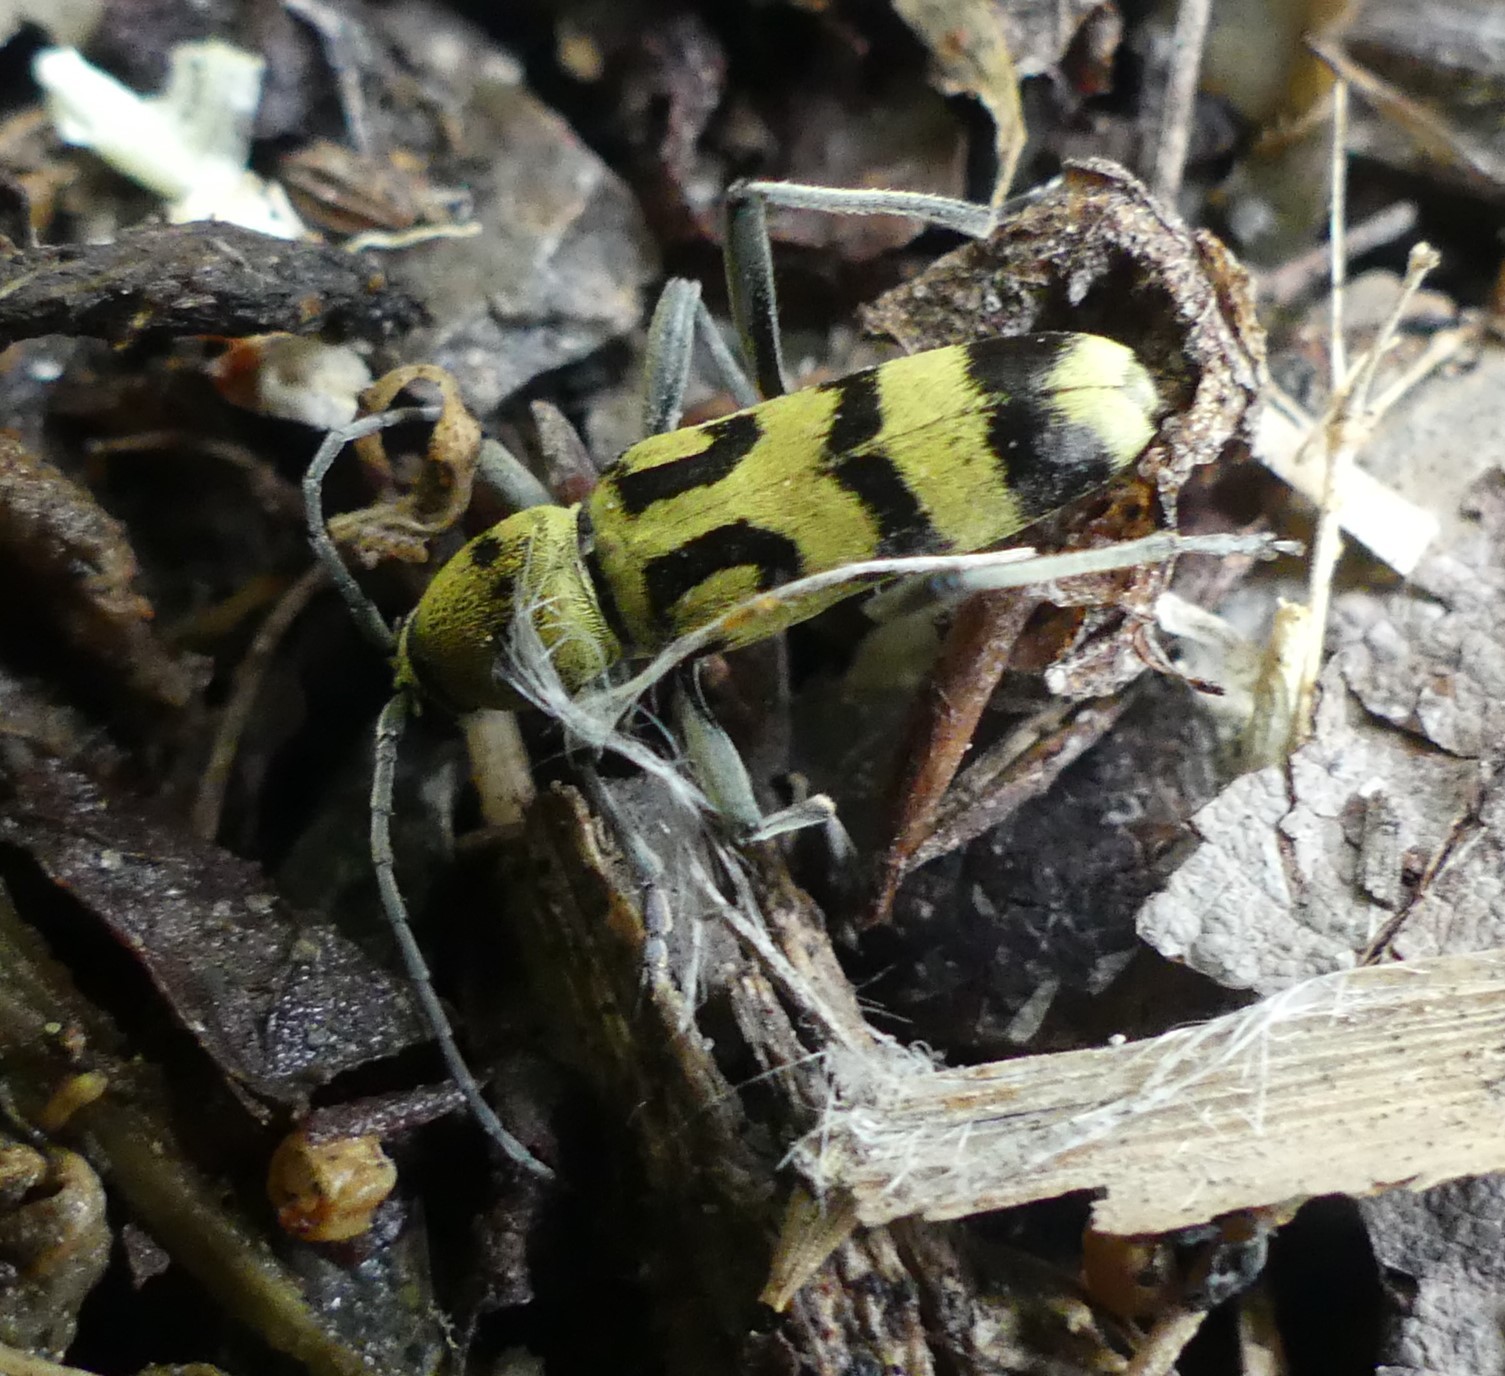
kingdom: Animalia
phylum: Arthropoda
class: Insecta
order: Coleoptera
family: Cerambycidae
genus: Chlorophorus
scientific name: Chlorophorus varius
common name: Grape wood borer
